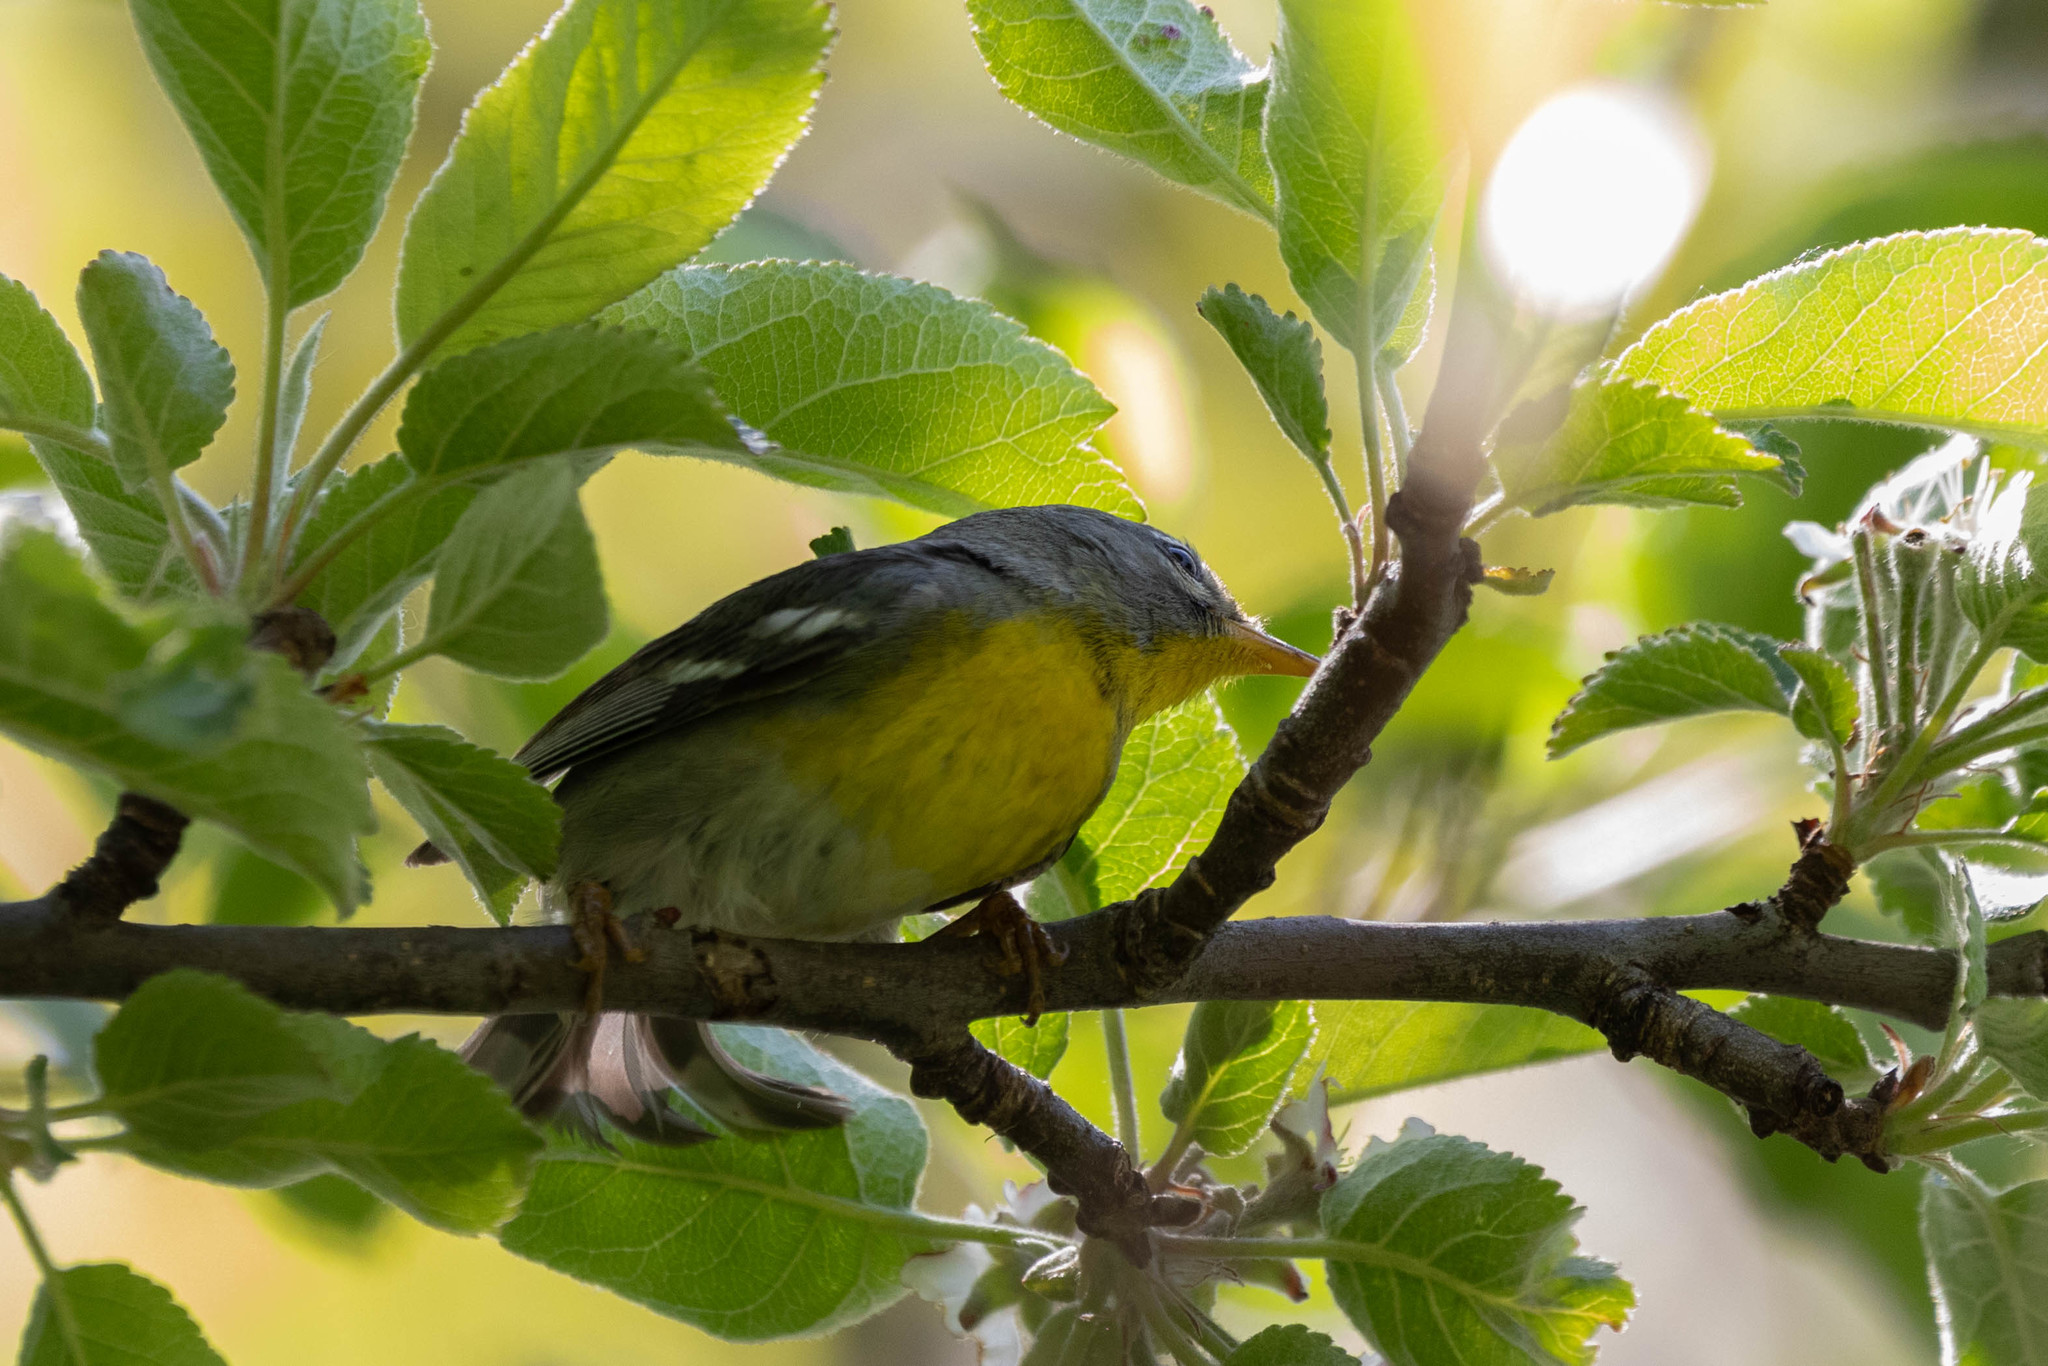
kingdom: Animalia
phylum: Chordata
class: Aves
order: Passeriformes
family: Parulidae
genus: Setophaga
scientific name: Setophaga americana
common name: Northern parula
